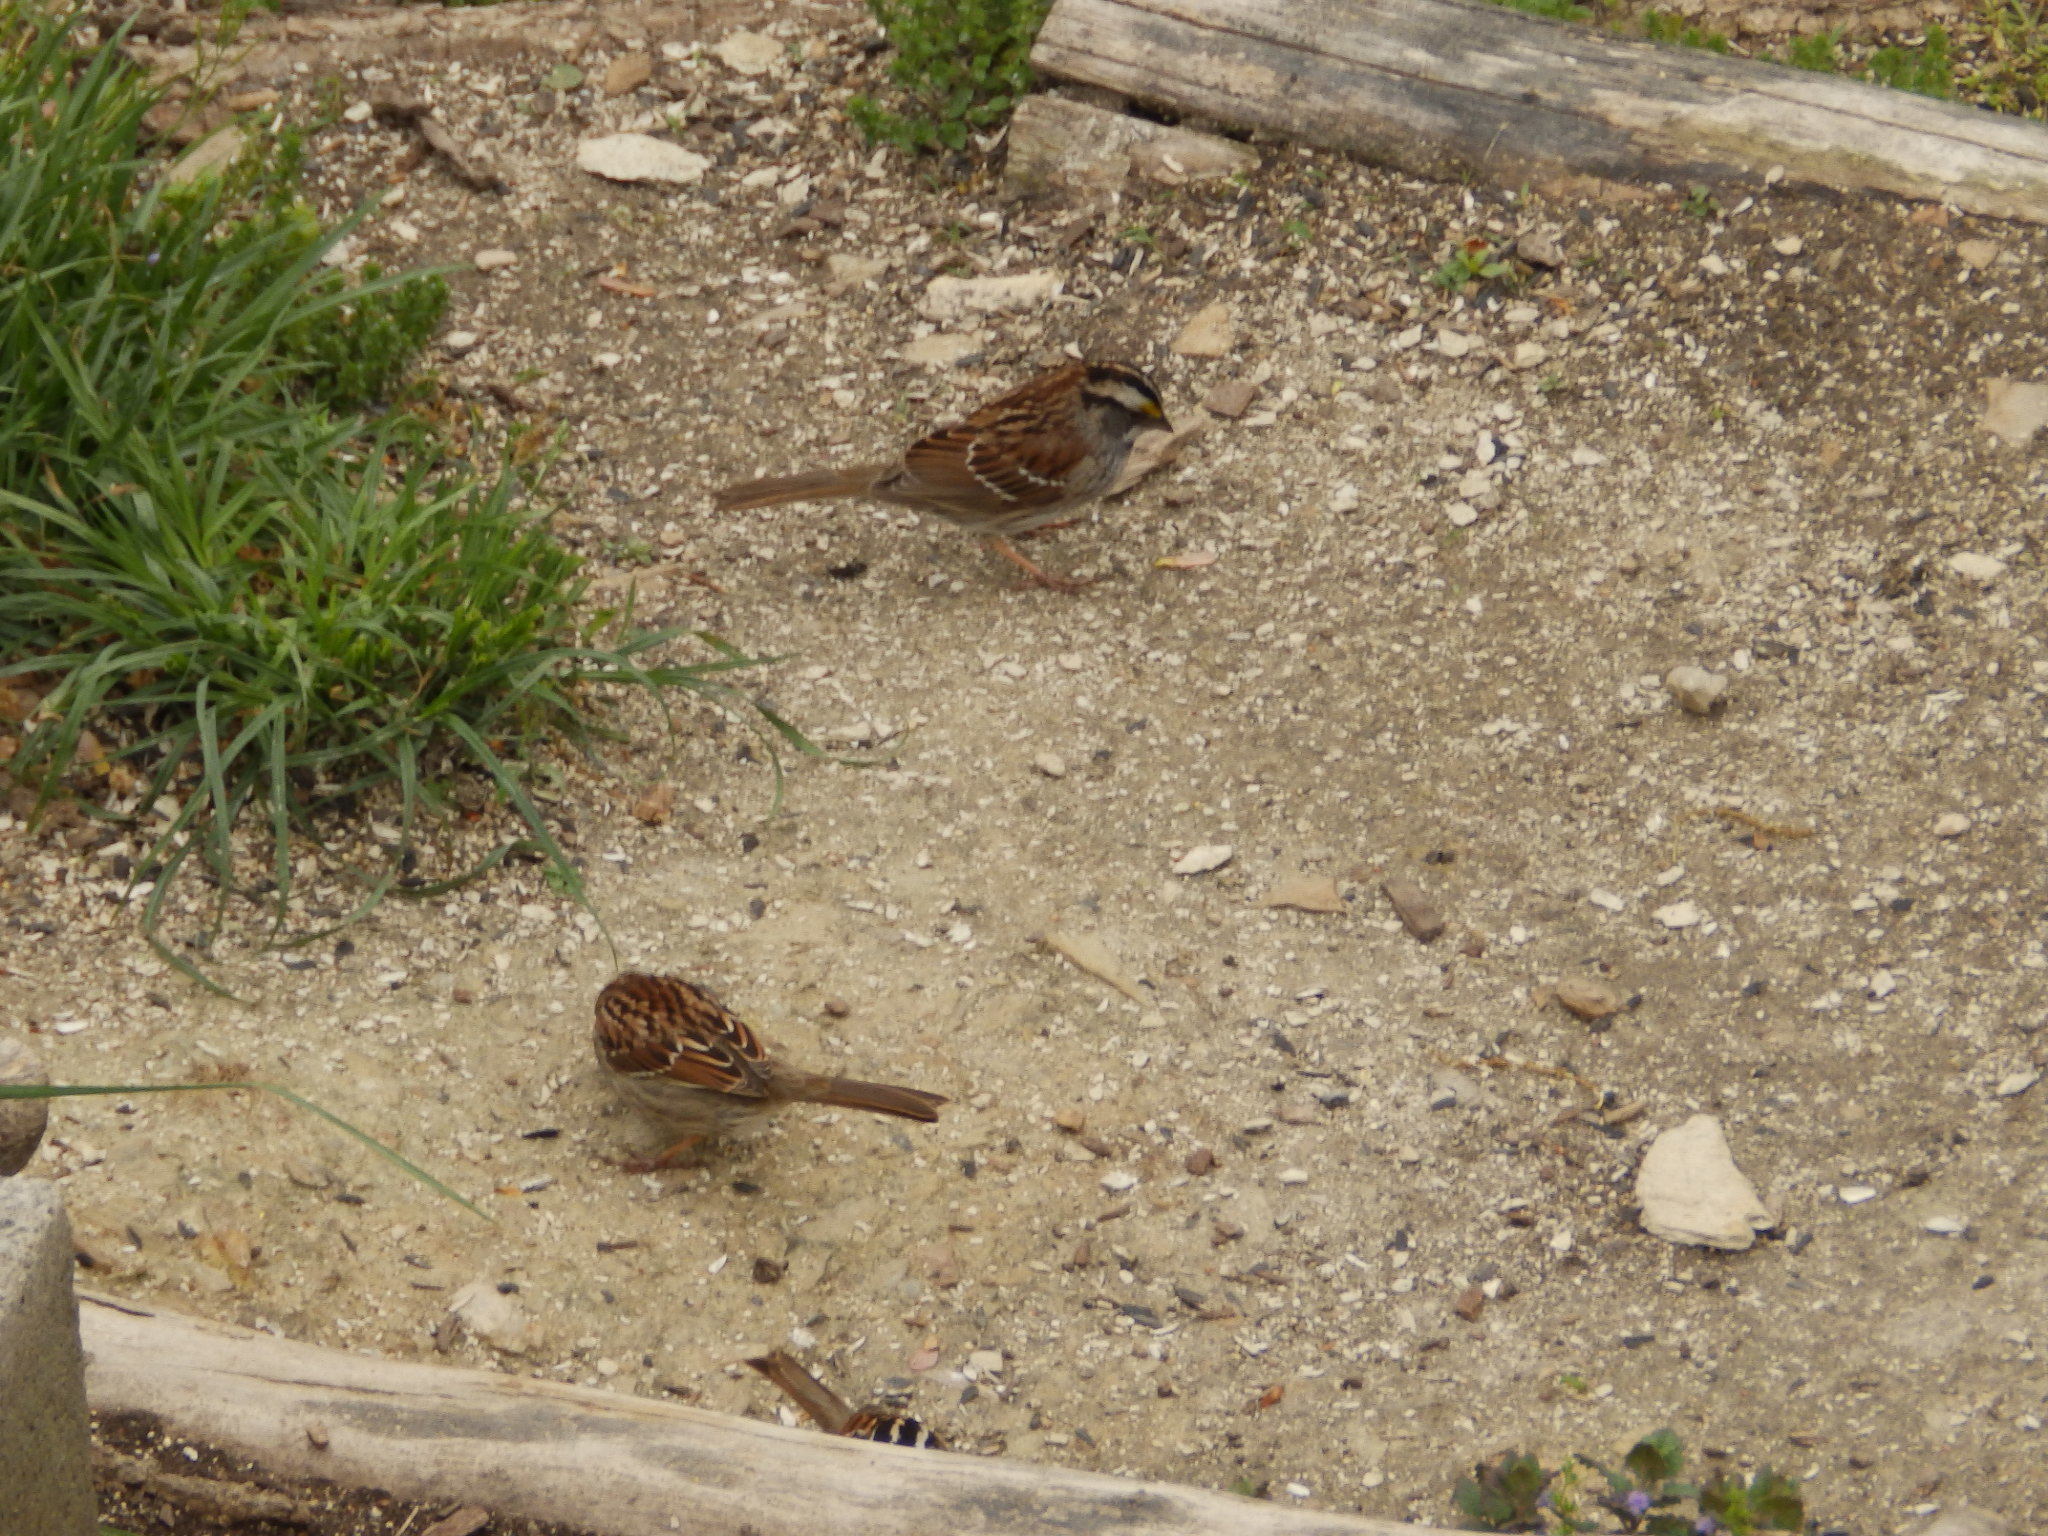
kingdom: Animalia
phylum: Chordata
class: Aves
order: Passeriformes
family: Passerellidae
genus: Zonotrichia
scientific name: Zonotrichia albicollis
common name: White-throated sparrow
